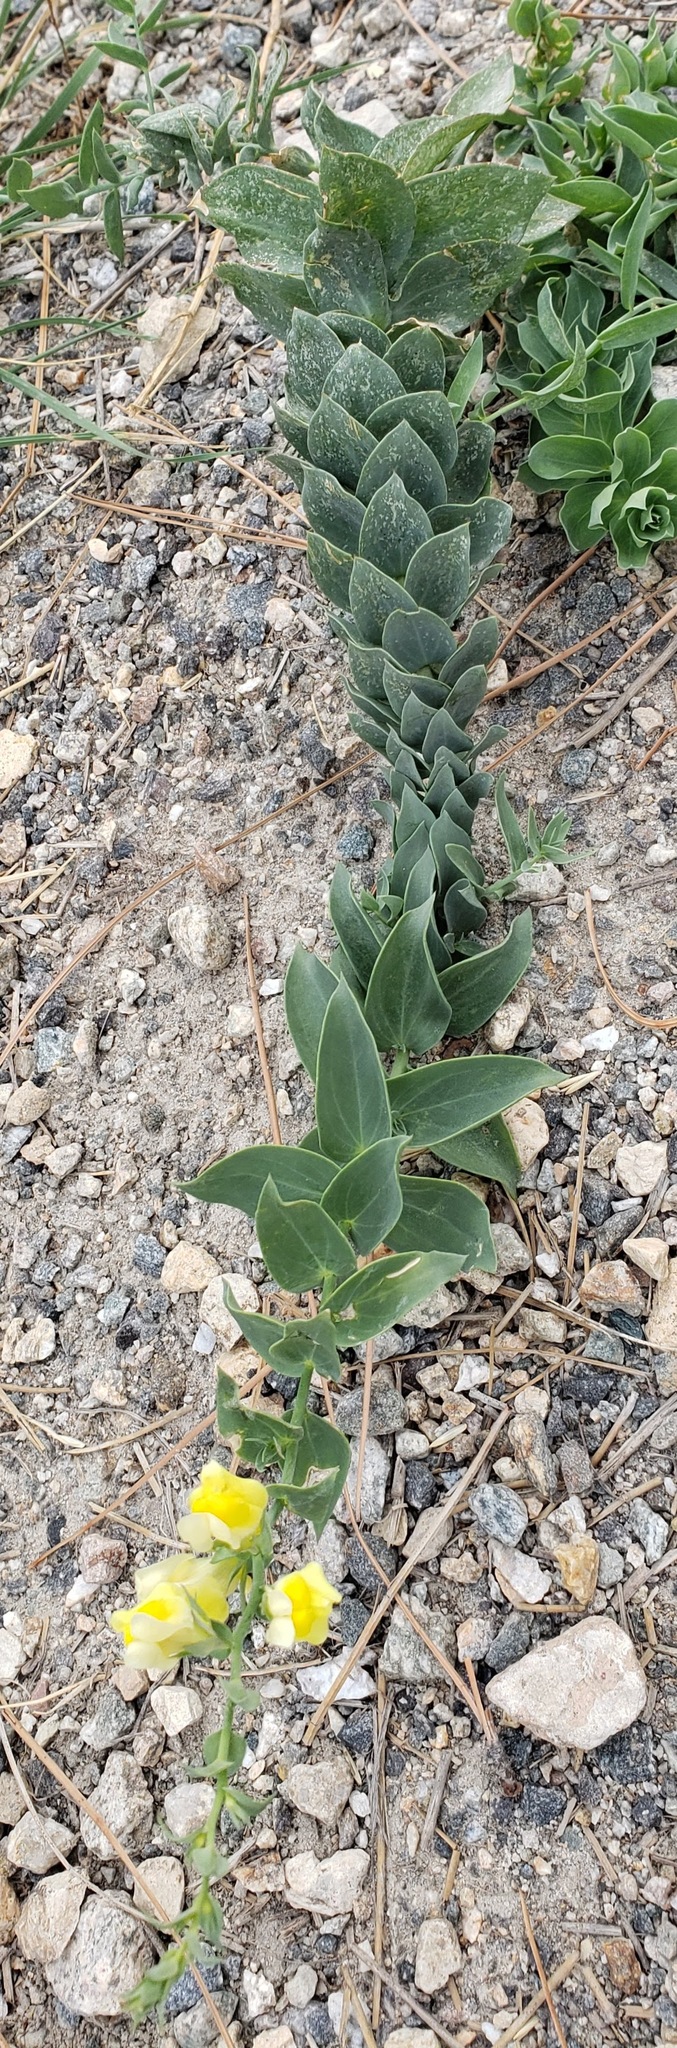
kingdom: Plantae
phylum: Tracheophyta
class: Magnoliopsida
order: Lamiales
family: Plantaginaceae
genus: Linaria
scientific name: Linaria dalmatica
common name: Dalmatian toadflax
